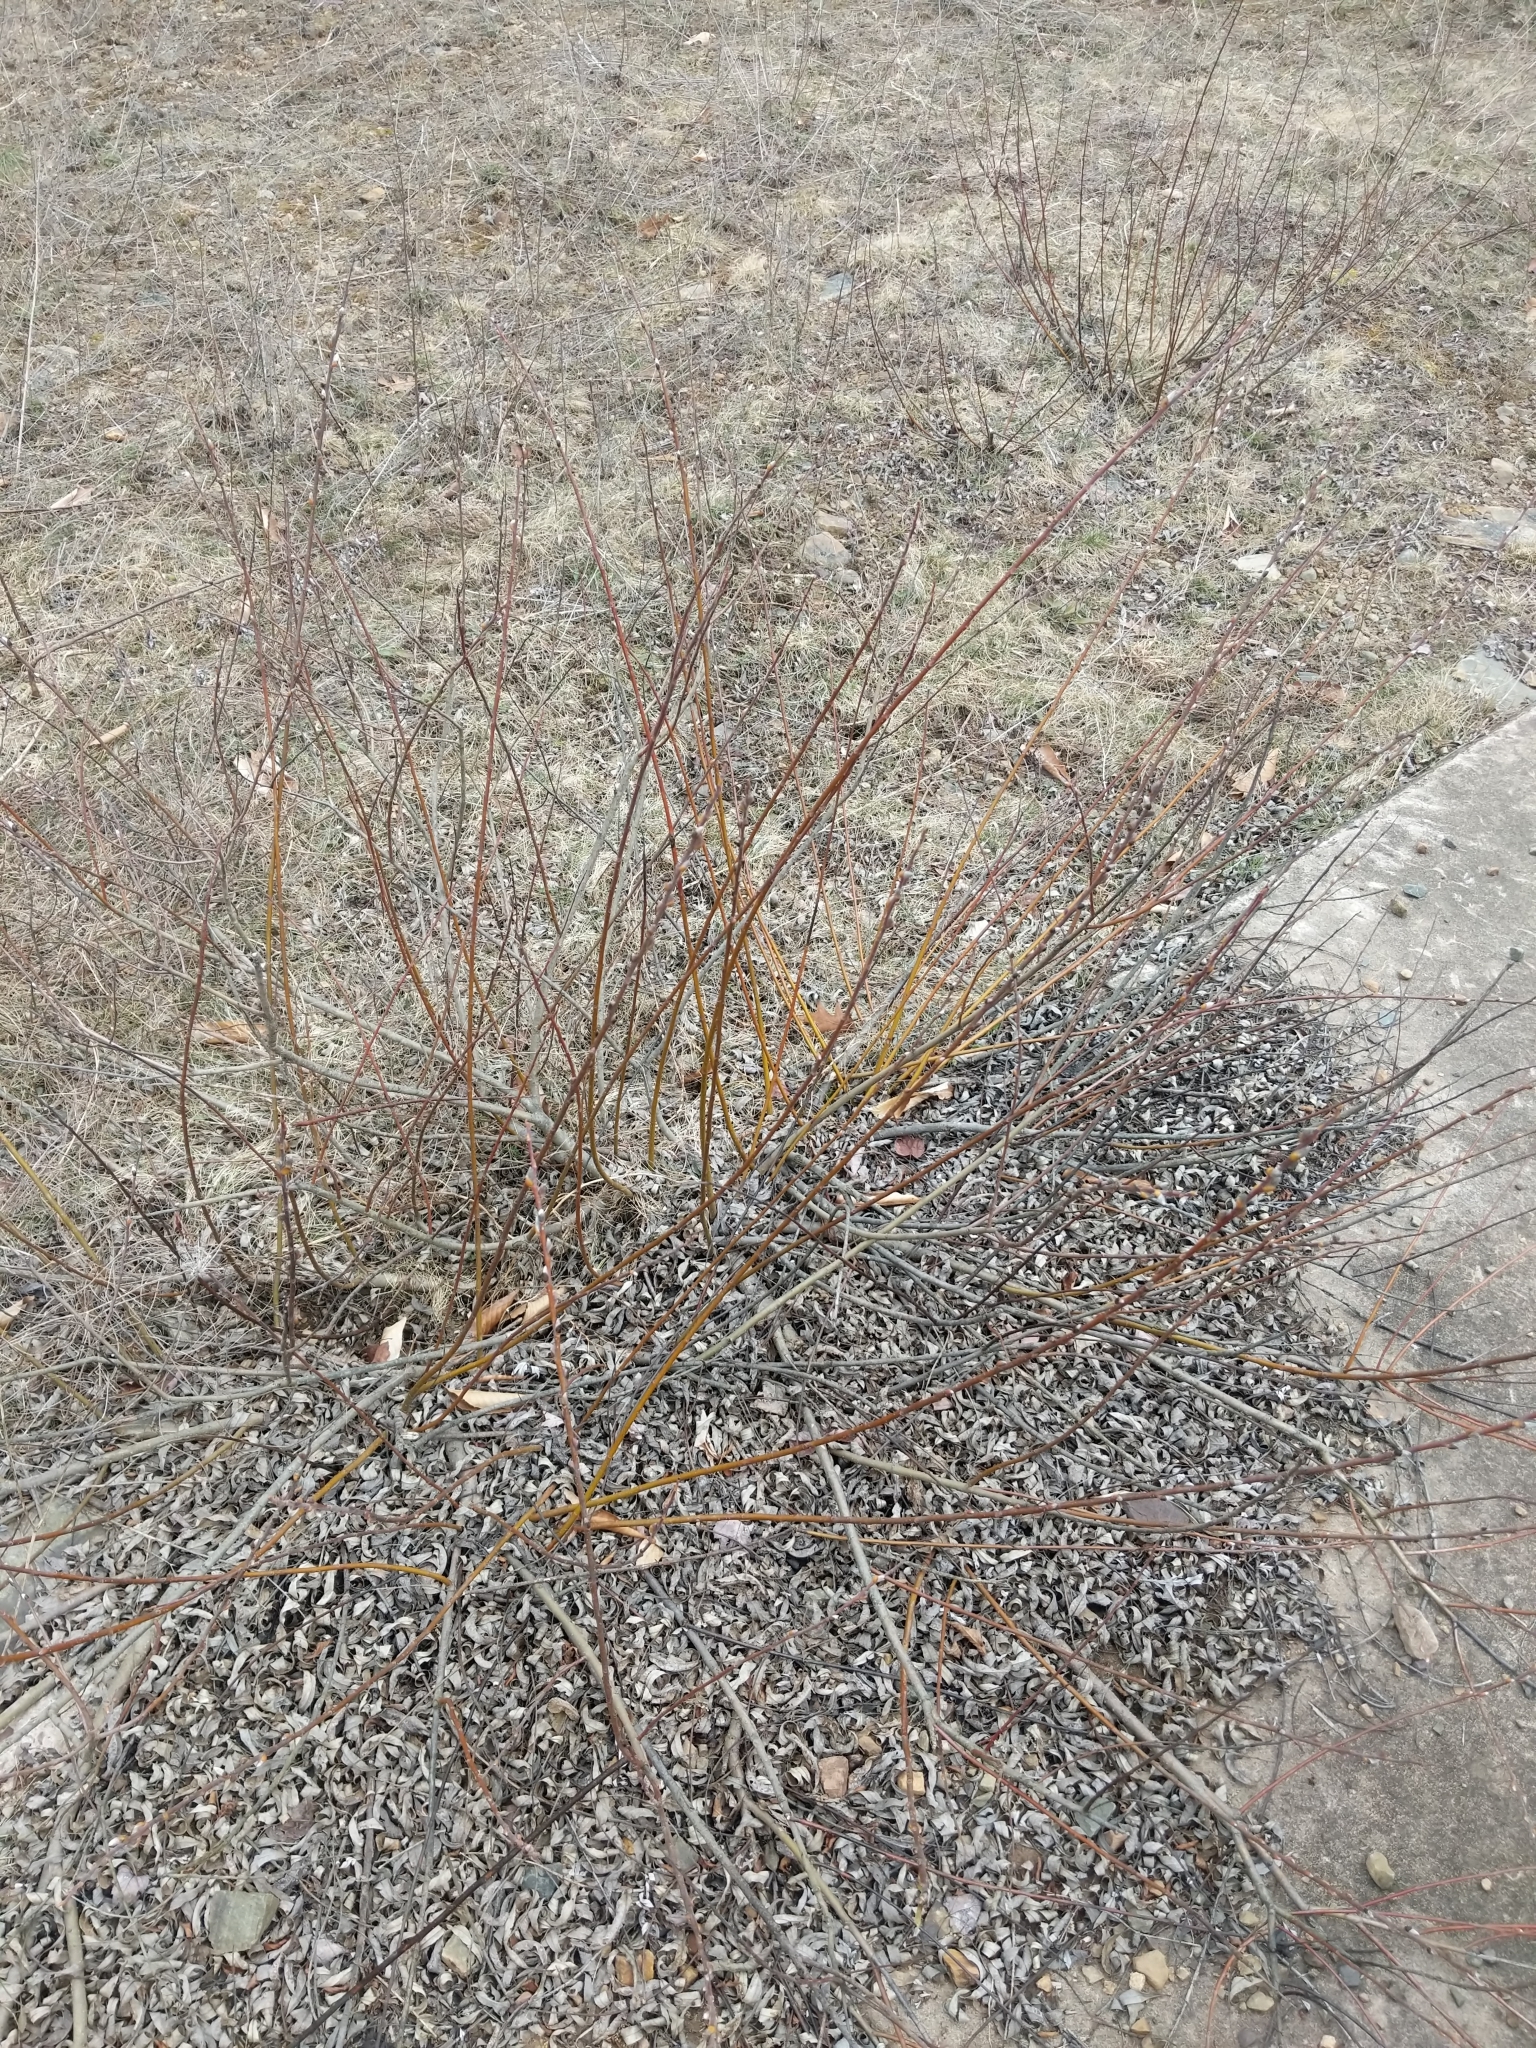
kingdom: Plantae
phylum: Tracheophyta
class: Magnoliopsida
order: Malpighiales
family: Salicaceae
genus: Salix
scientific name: Salix discolor
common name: Glaucous willow
